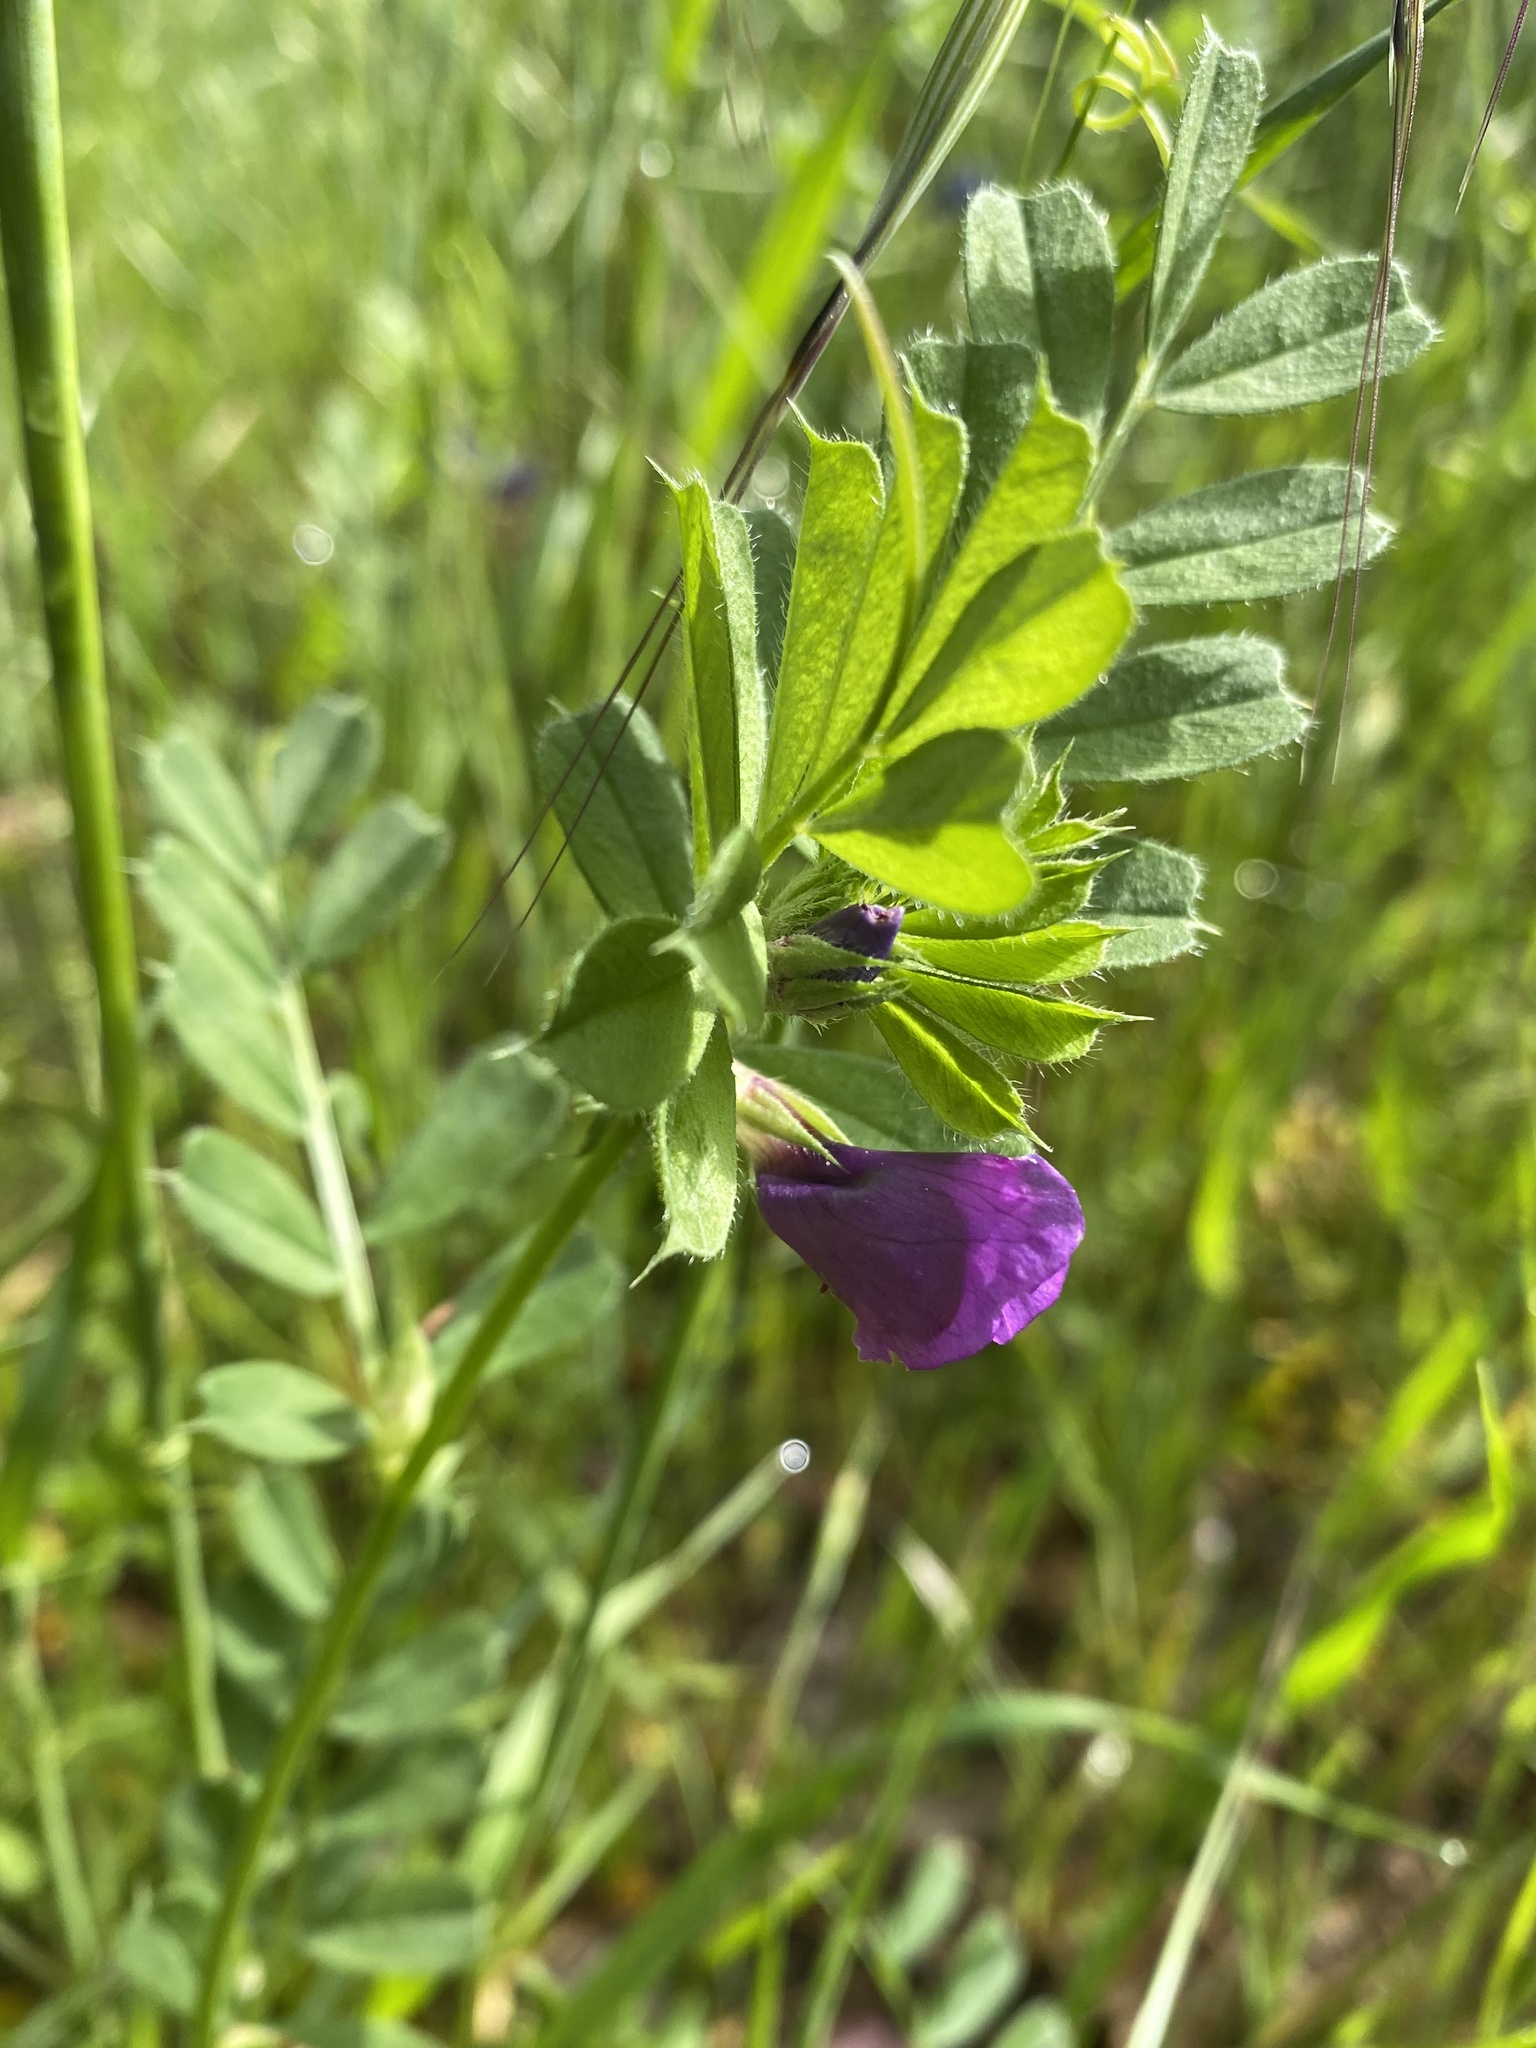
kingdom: Plantae
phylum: Tracheophyta
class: Magnoliopsida
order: Fabales
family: Fabaceae
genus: Vicia
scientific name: Vicia sativa
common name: Garden vetch
